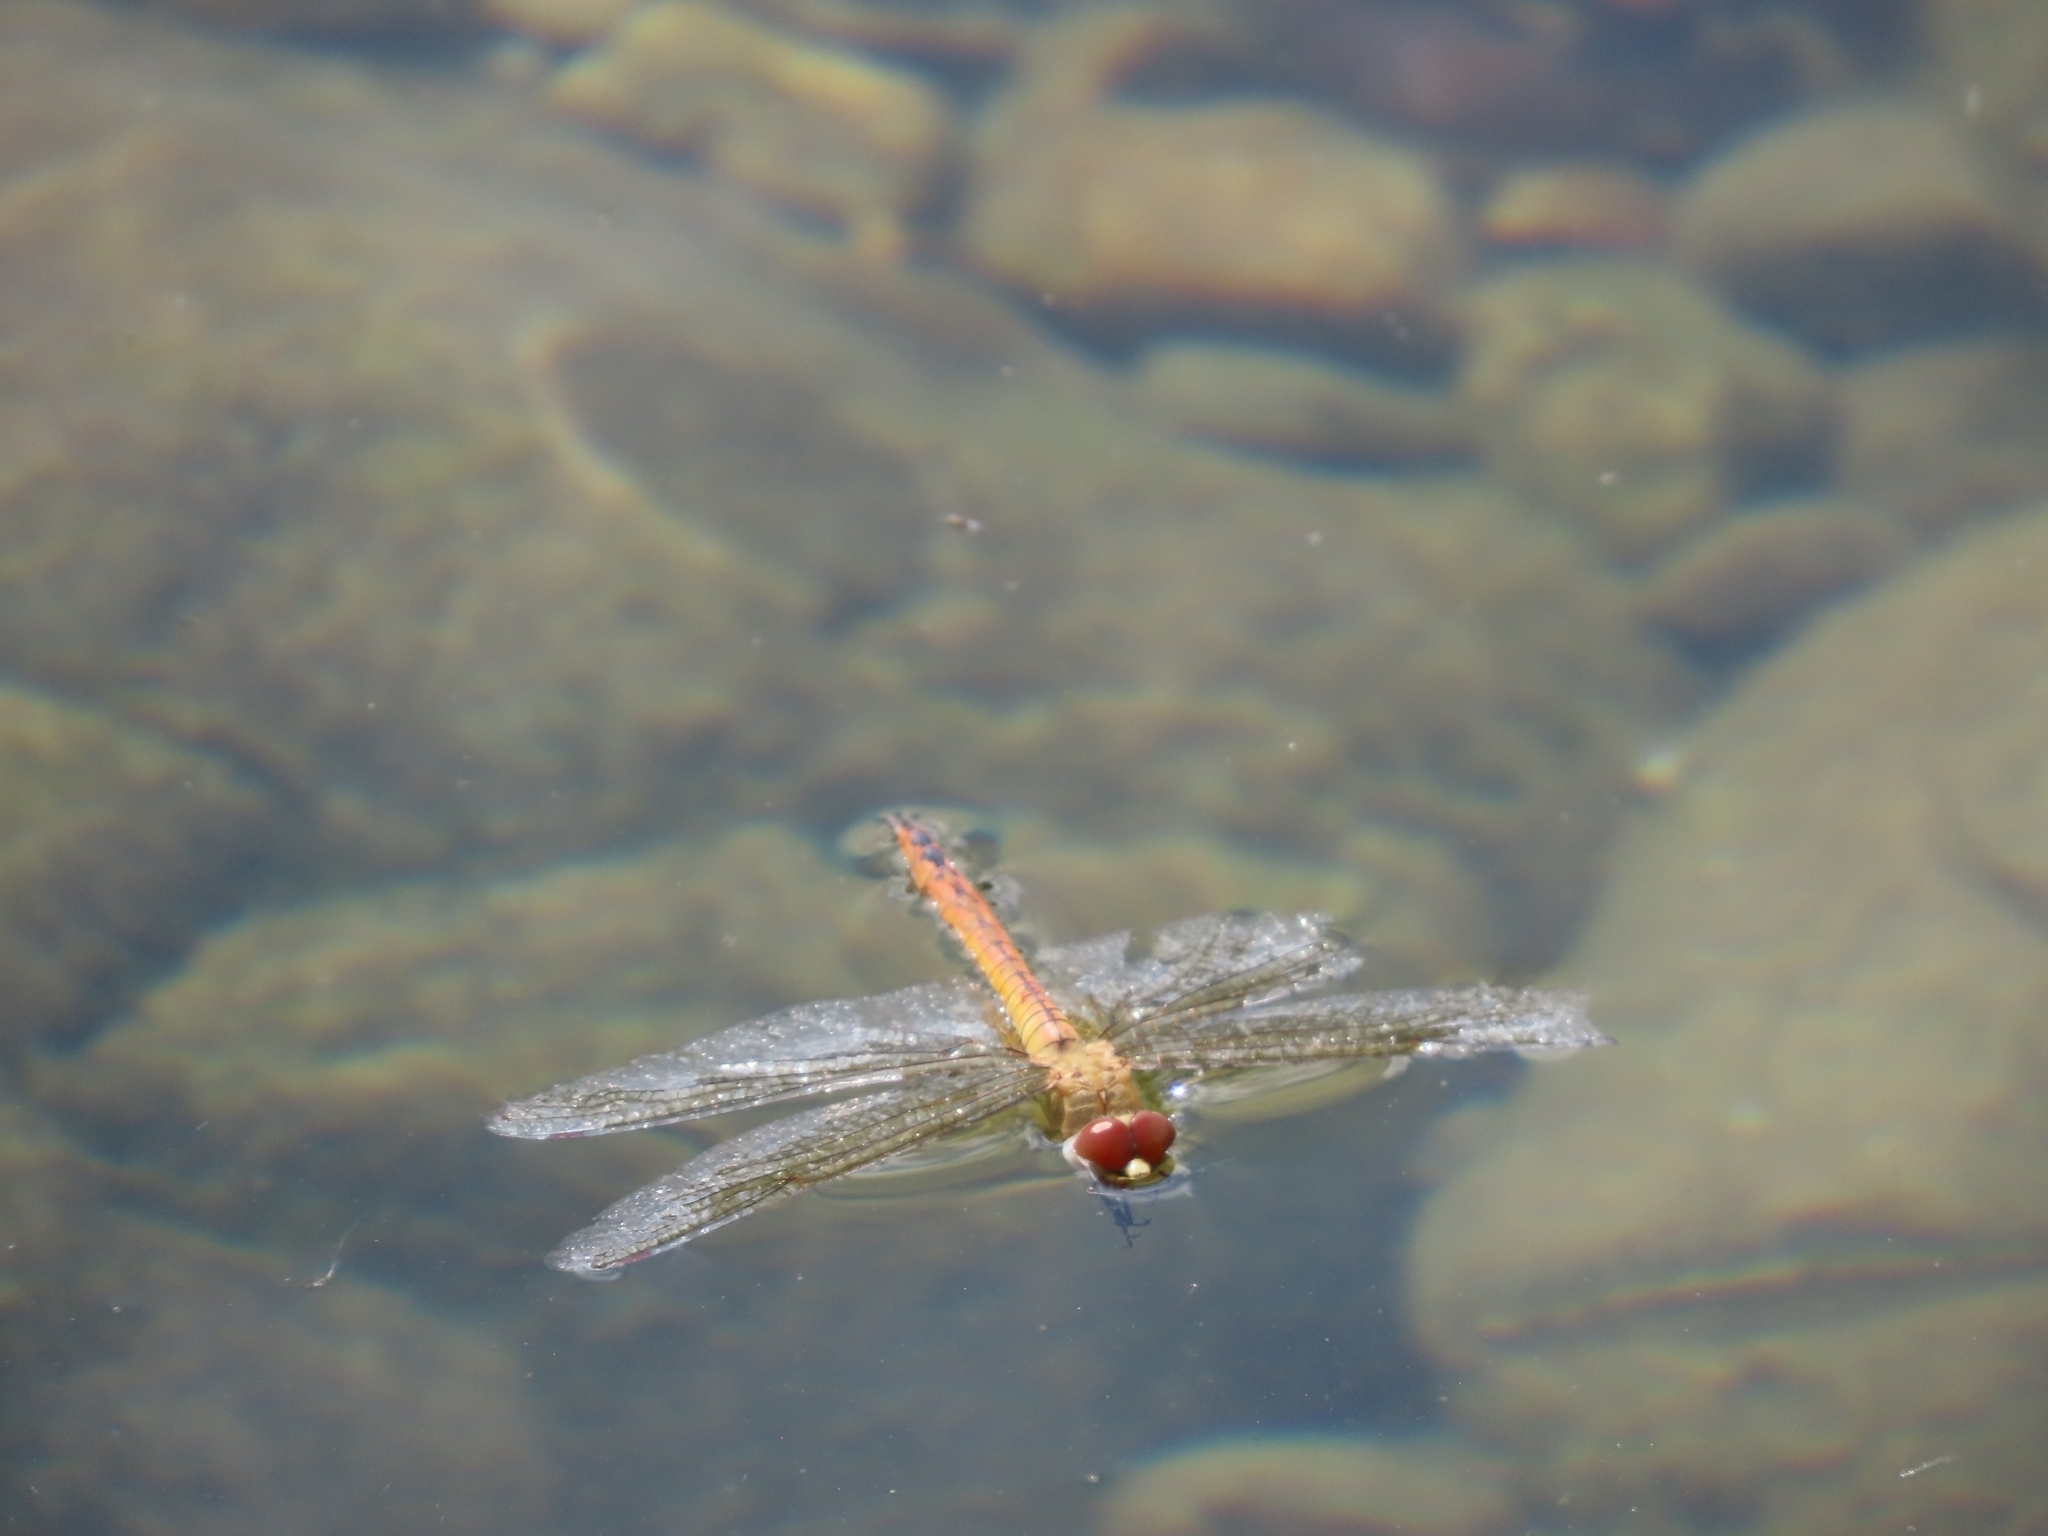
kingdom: Animalia
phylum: Arthropoda
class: Insecta
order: Odonata
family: Libellulidae
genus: Pantala
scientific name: Pantala flavescens
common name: Wandering glider
